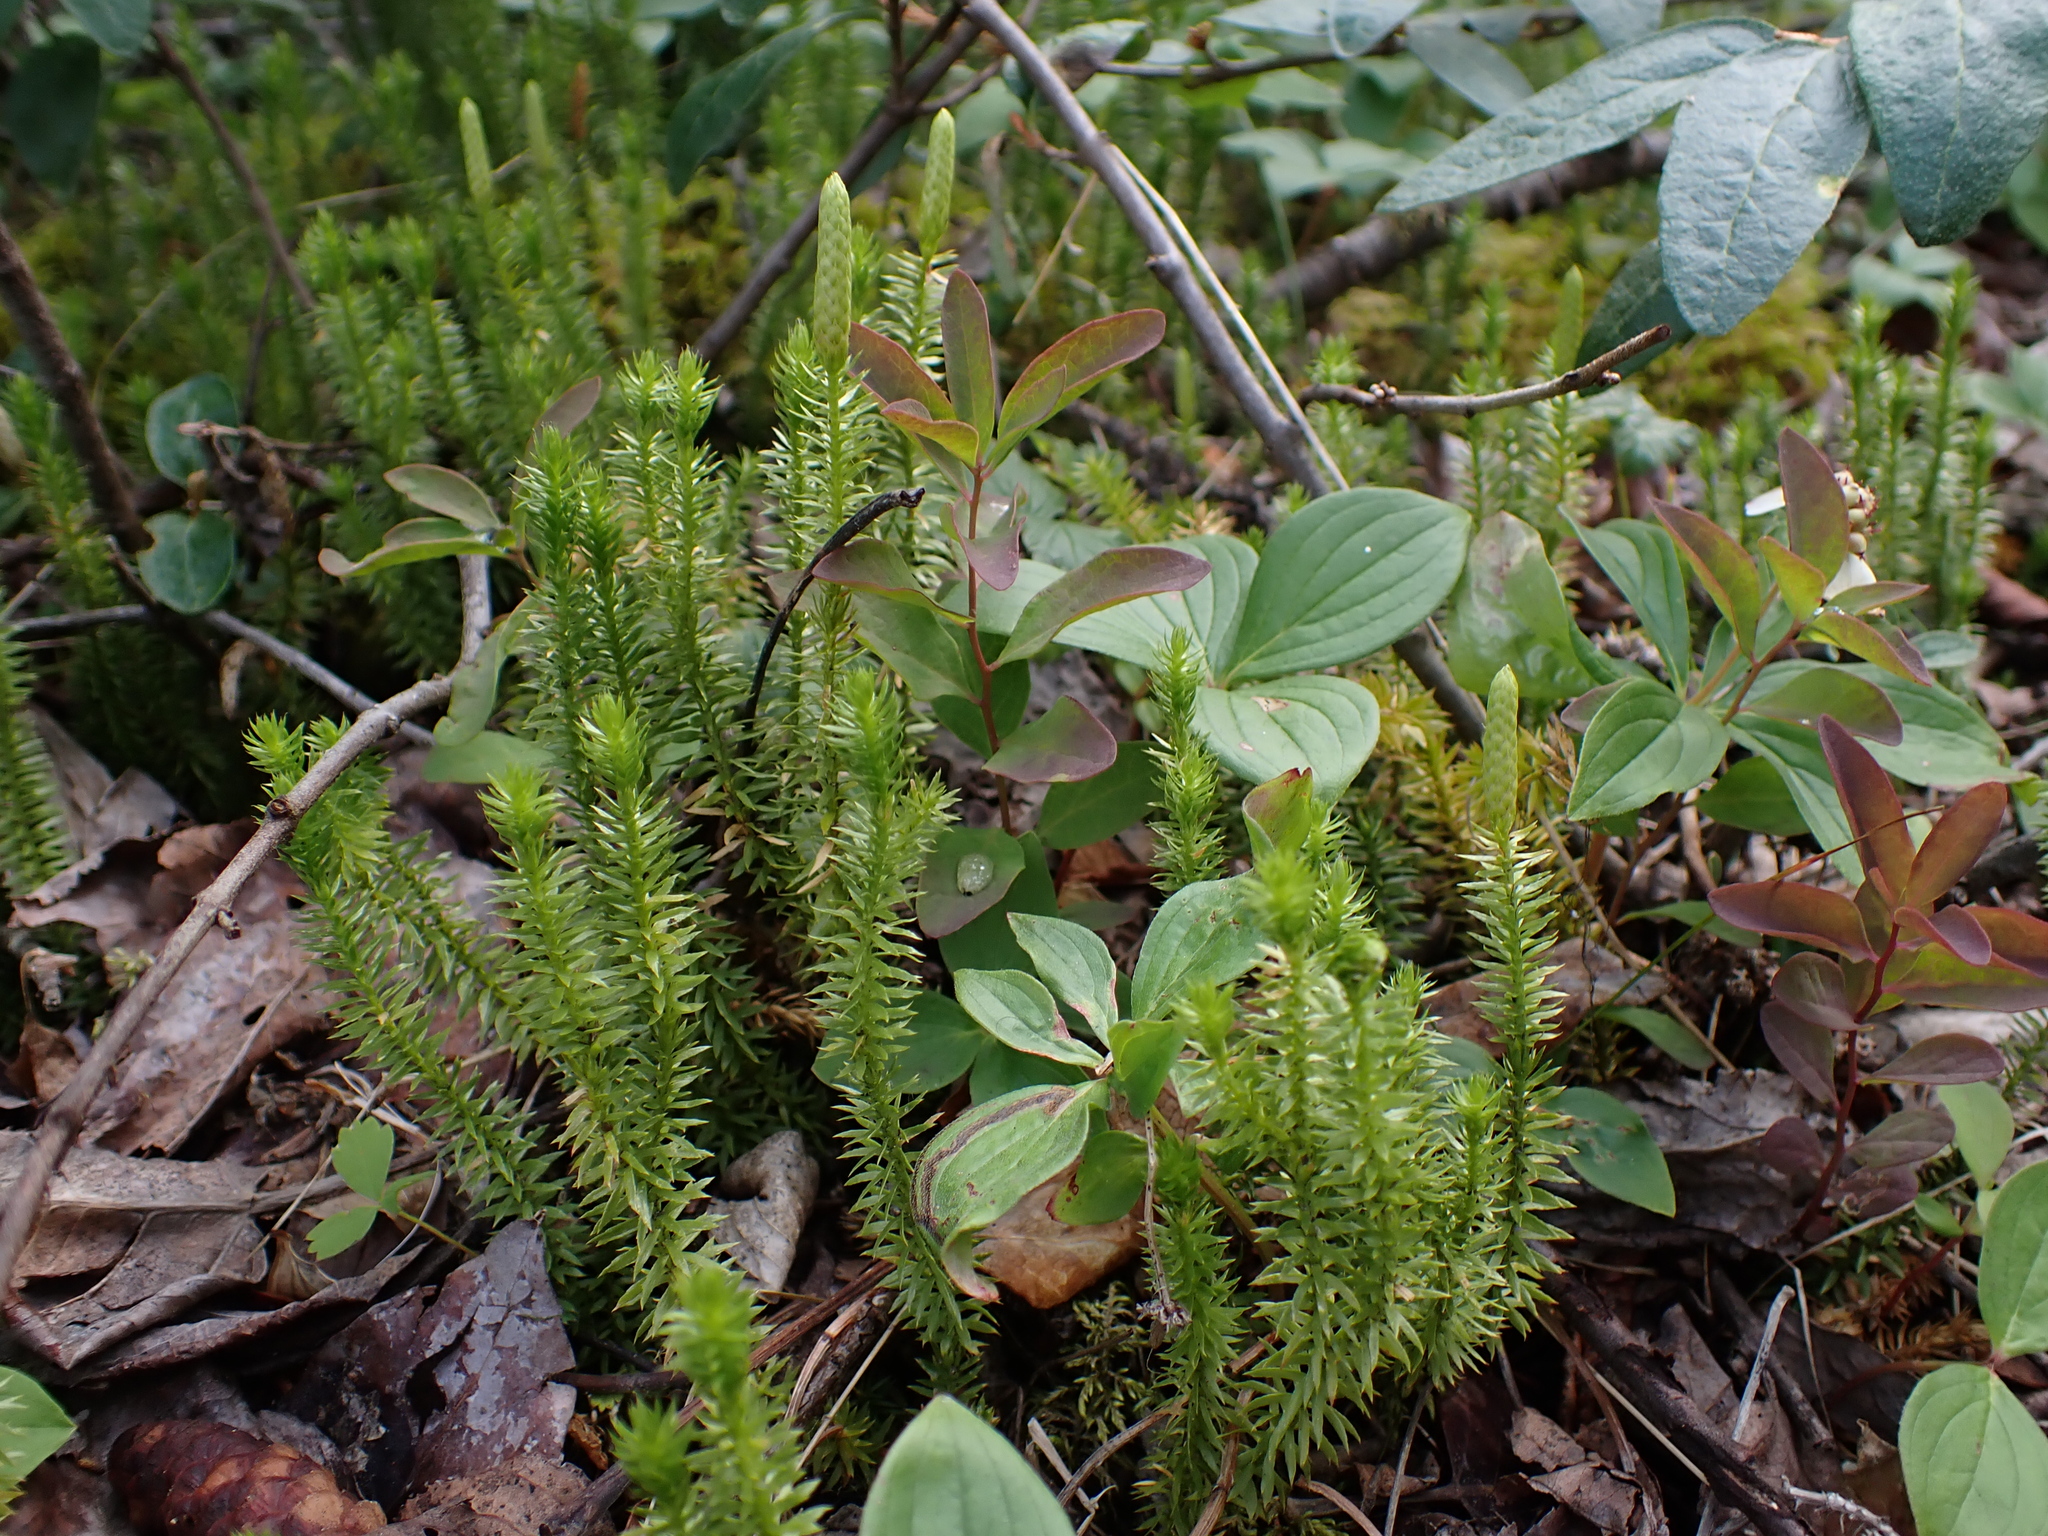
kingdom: Plantae
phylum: Tracheophyta
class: Magnoliopsida
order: Santalales
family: Comandraceae
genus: Geocaulon
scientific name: Geocaulon lividum
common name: Earthberry
